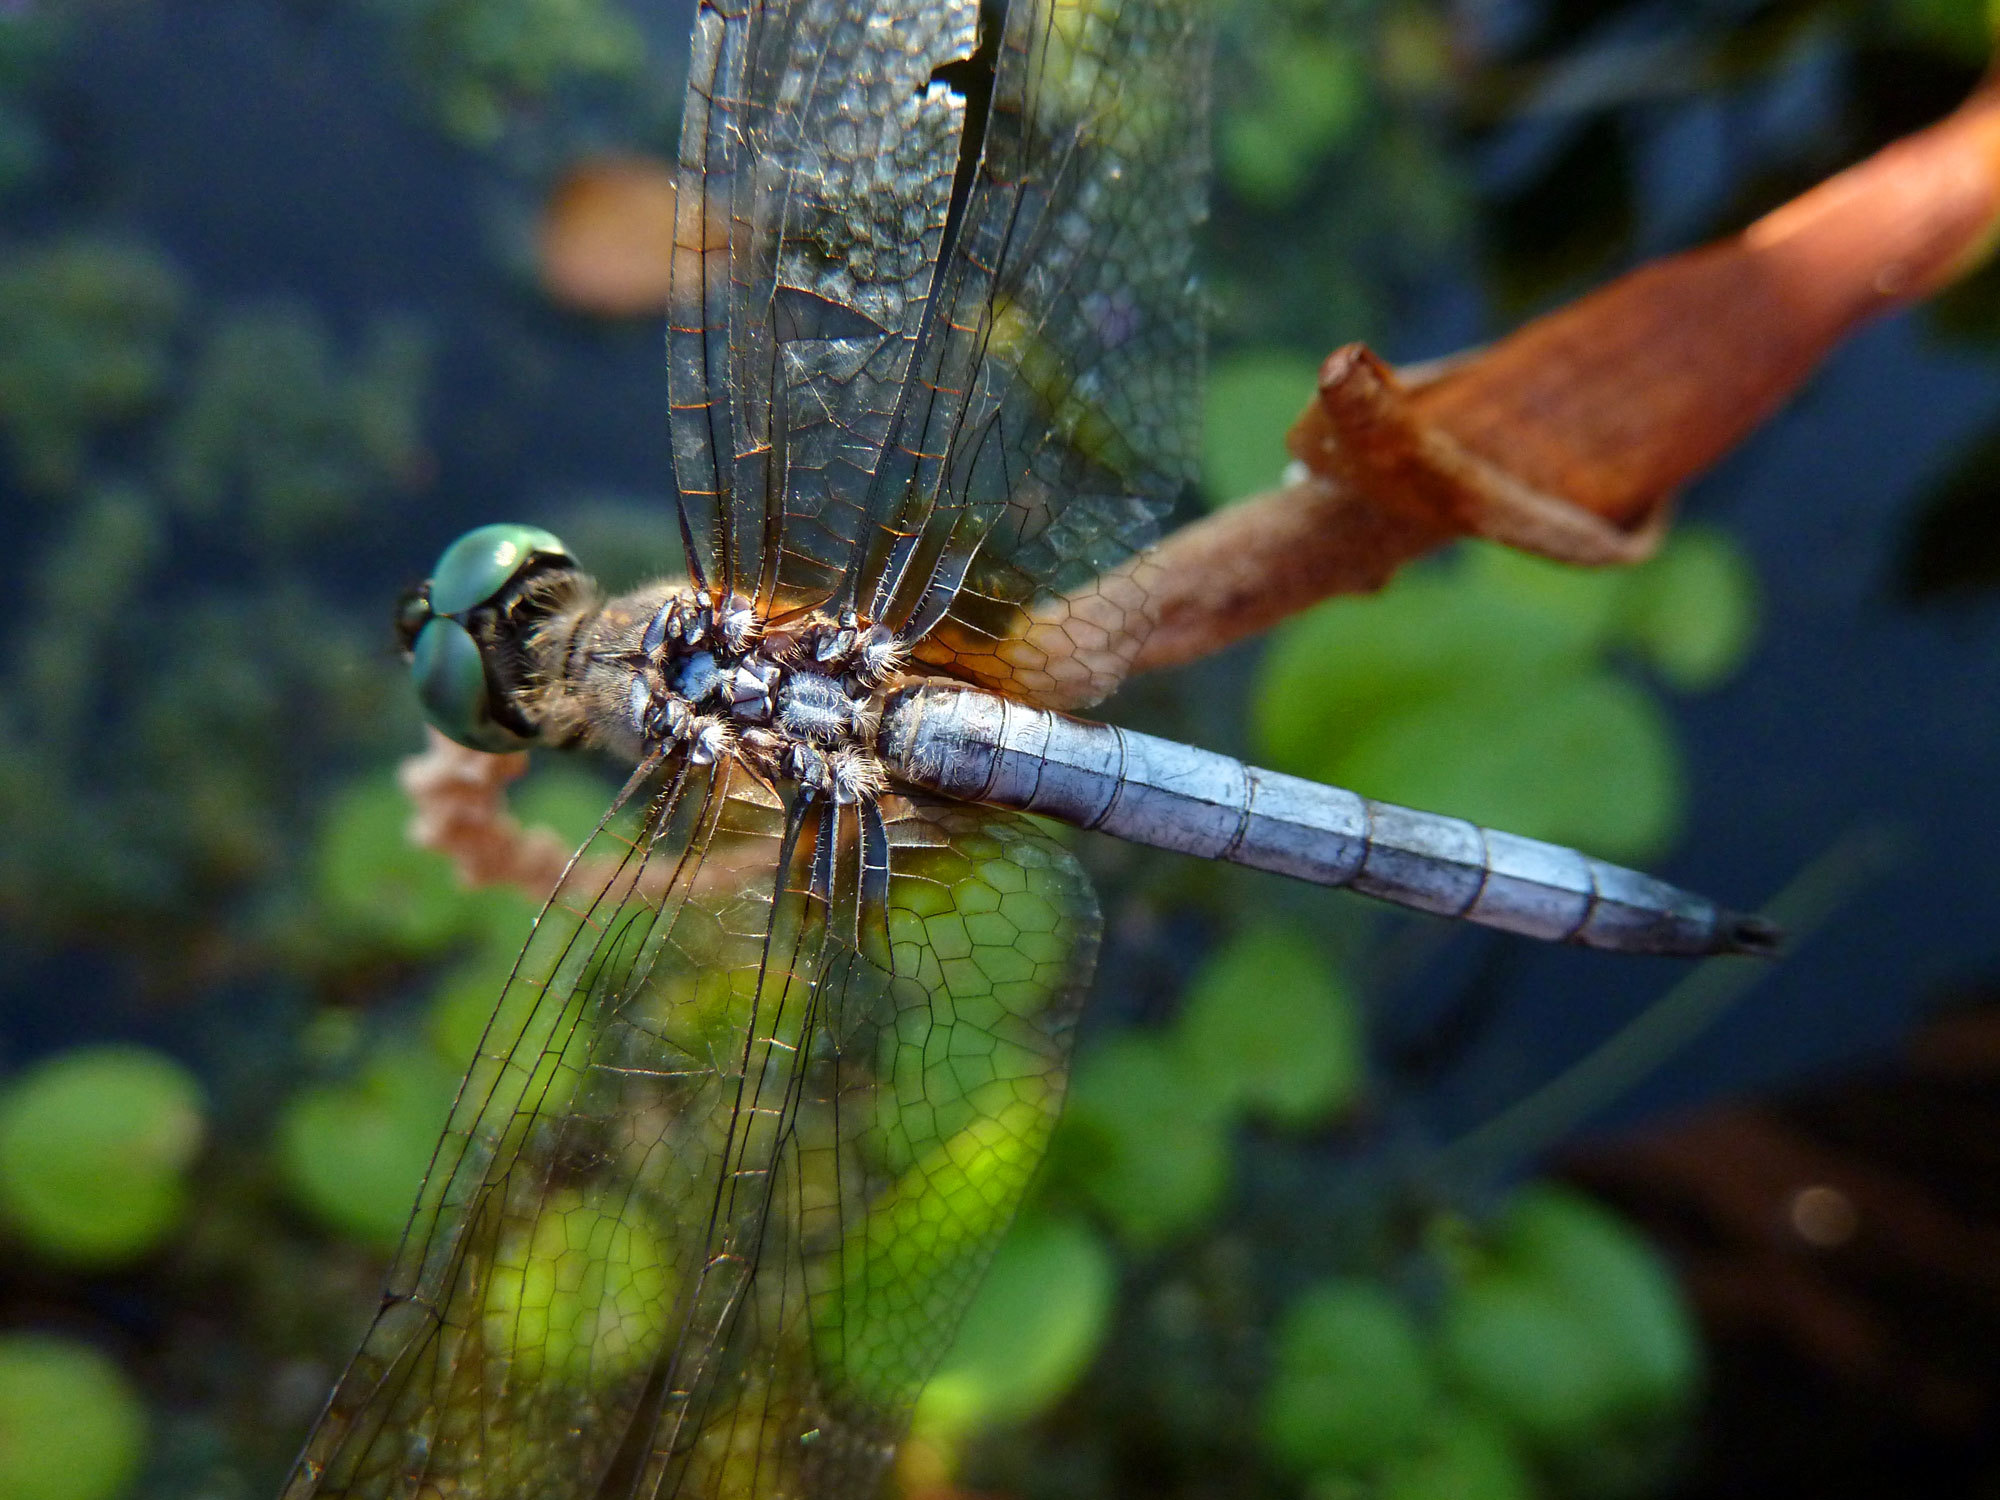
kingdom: Animalia
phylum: Arthropoda
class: Insecta
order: Odonata
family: Libellulidae
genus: Pachydiplax
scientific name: Pachydiplax longipennis
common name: Blue dasher
